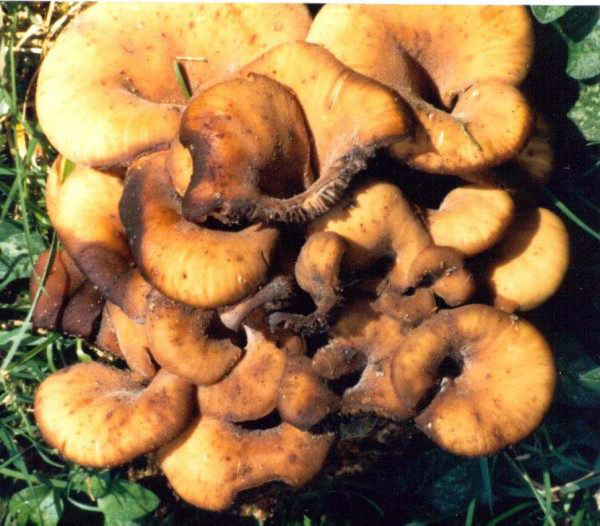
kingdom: Fungi
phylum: Basidiomycota
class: Agaricomycetes
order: Russulales
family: Auriscalpiaceae
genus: Lentinellus
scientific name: Lentinellus cochleatus
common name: Aniseed cockleshell
